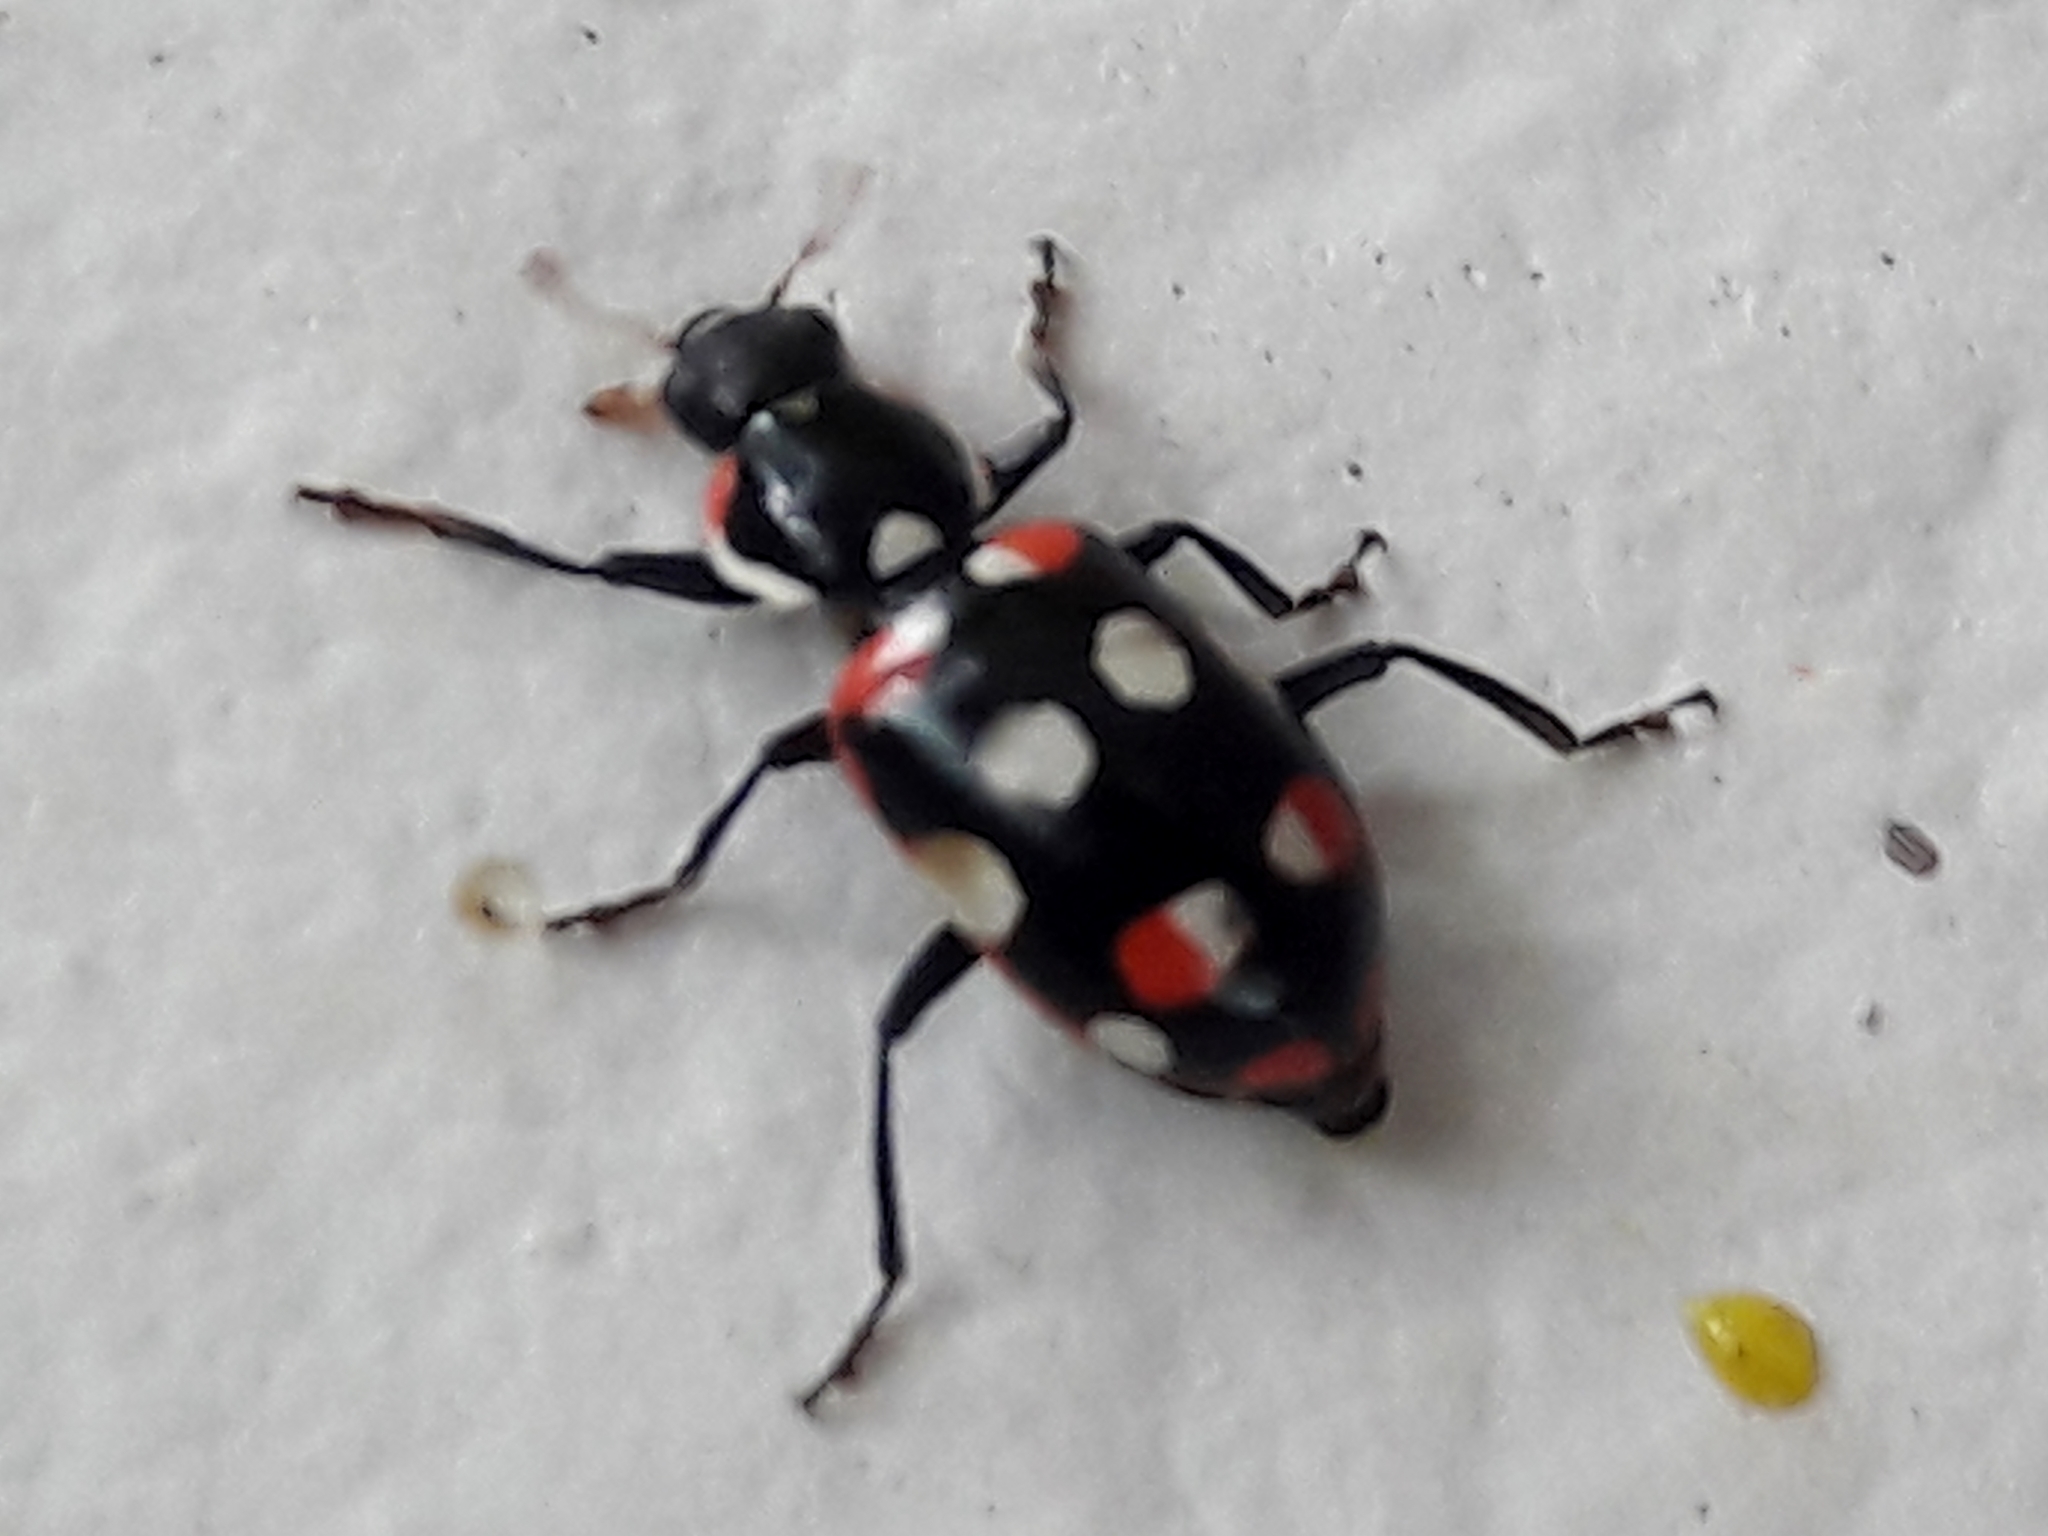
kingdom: Animalia
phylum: Arthropoda
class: Insecta
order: Coleoptera
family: Coccinellidae
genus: Eriopis
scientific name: Eriopis connexa
